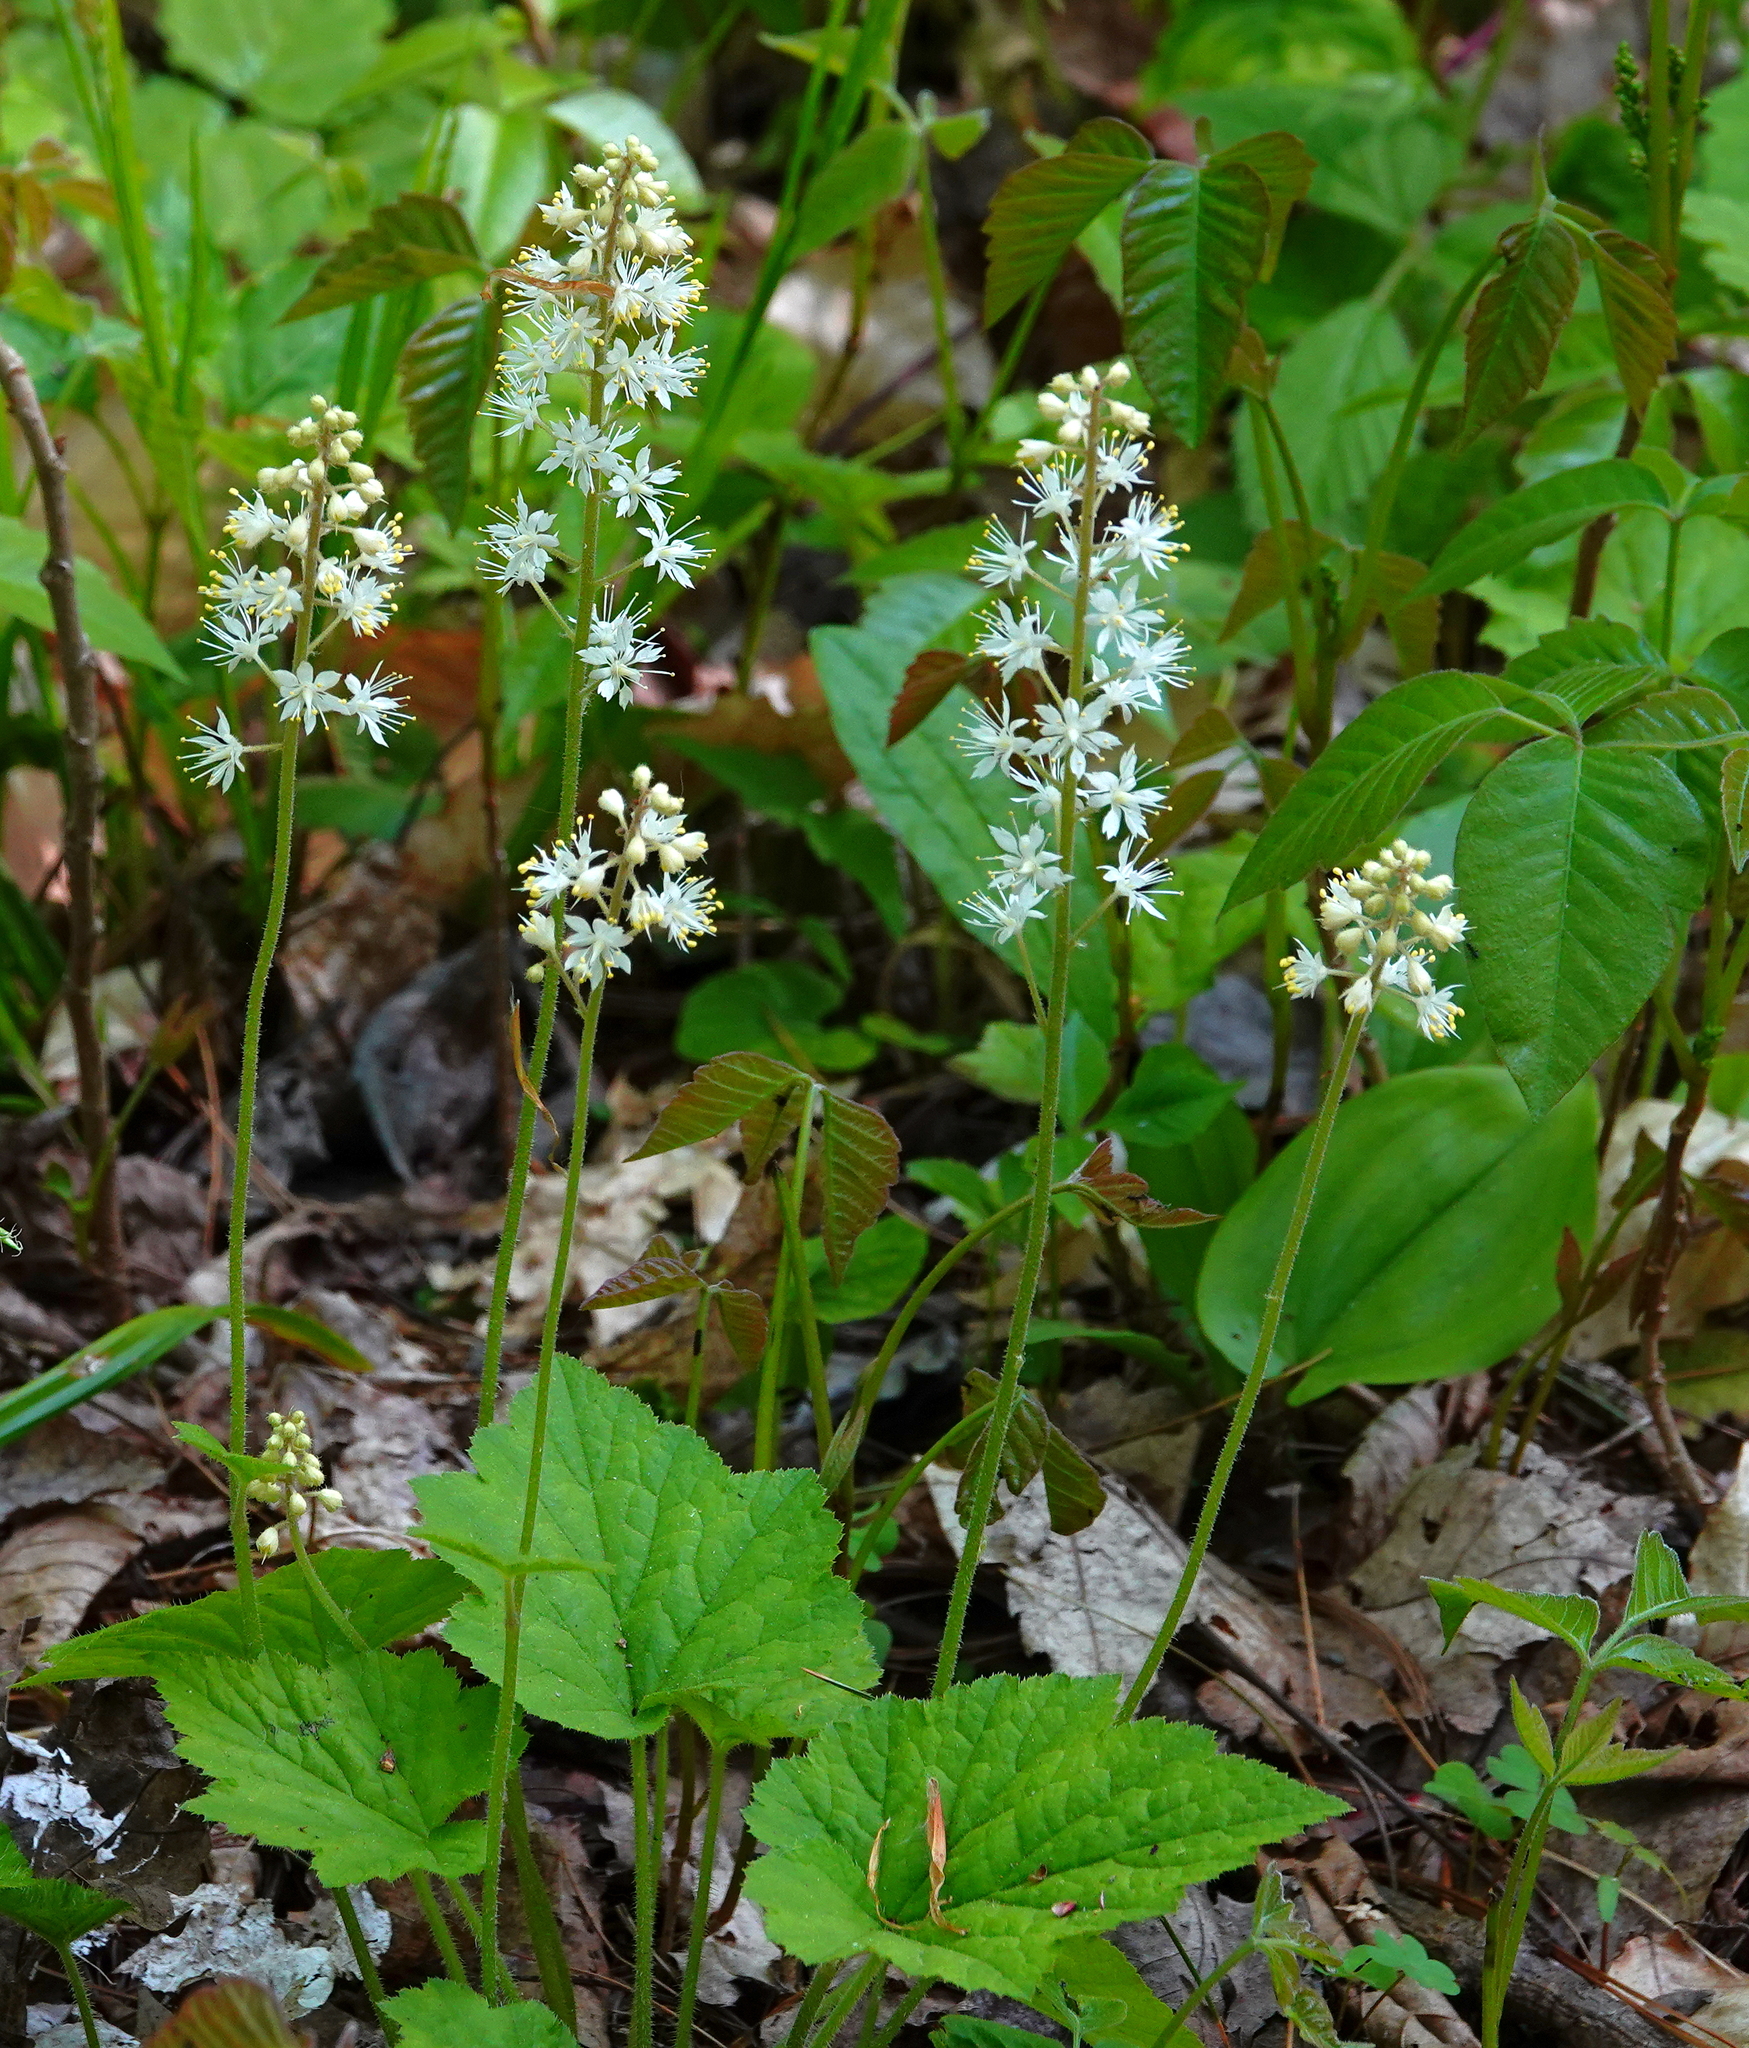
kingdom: Plantae
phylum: Tracheophyta
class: Magnoliopsida
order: Saxifragales
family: Saxifragaceae
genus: Tiarella
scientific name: Tiarella stolonifera
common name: Stoloniferous foamflower
